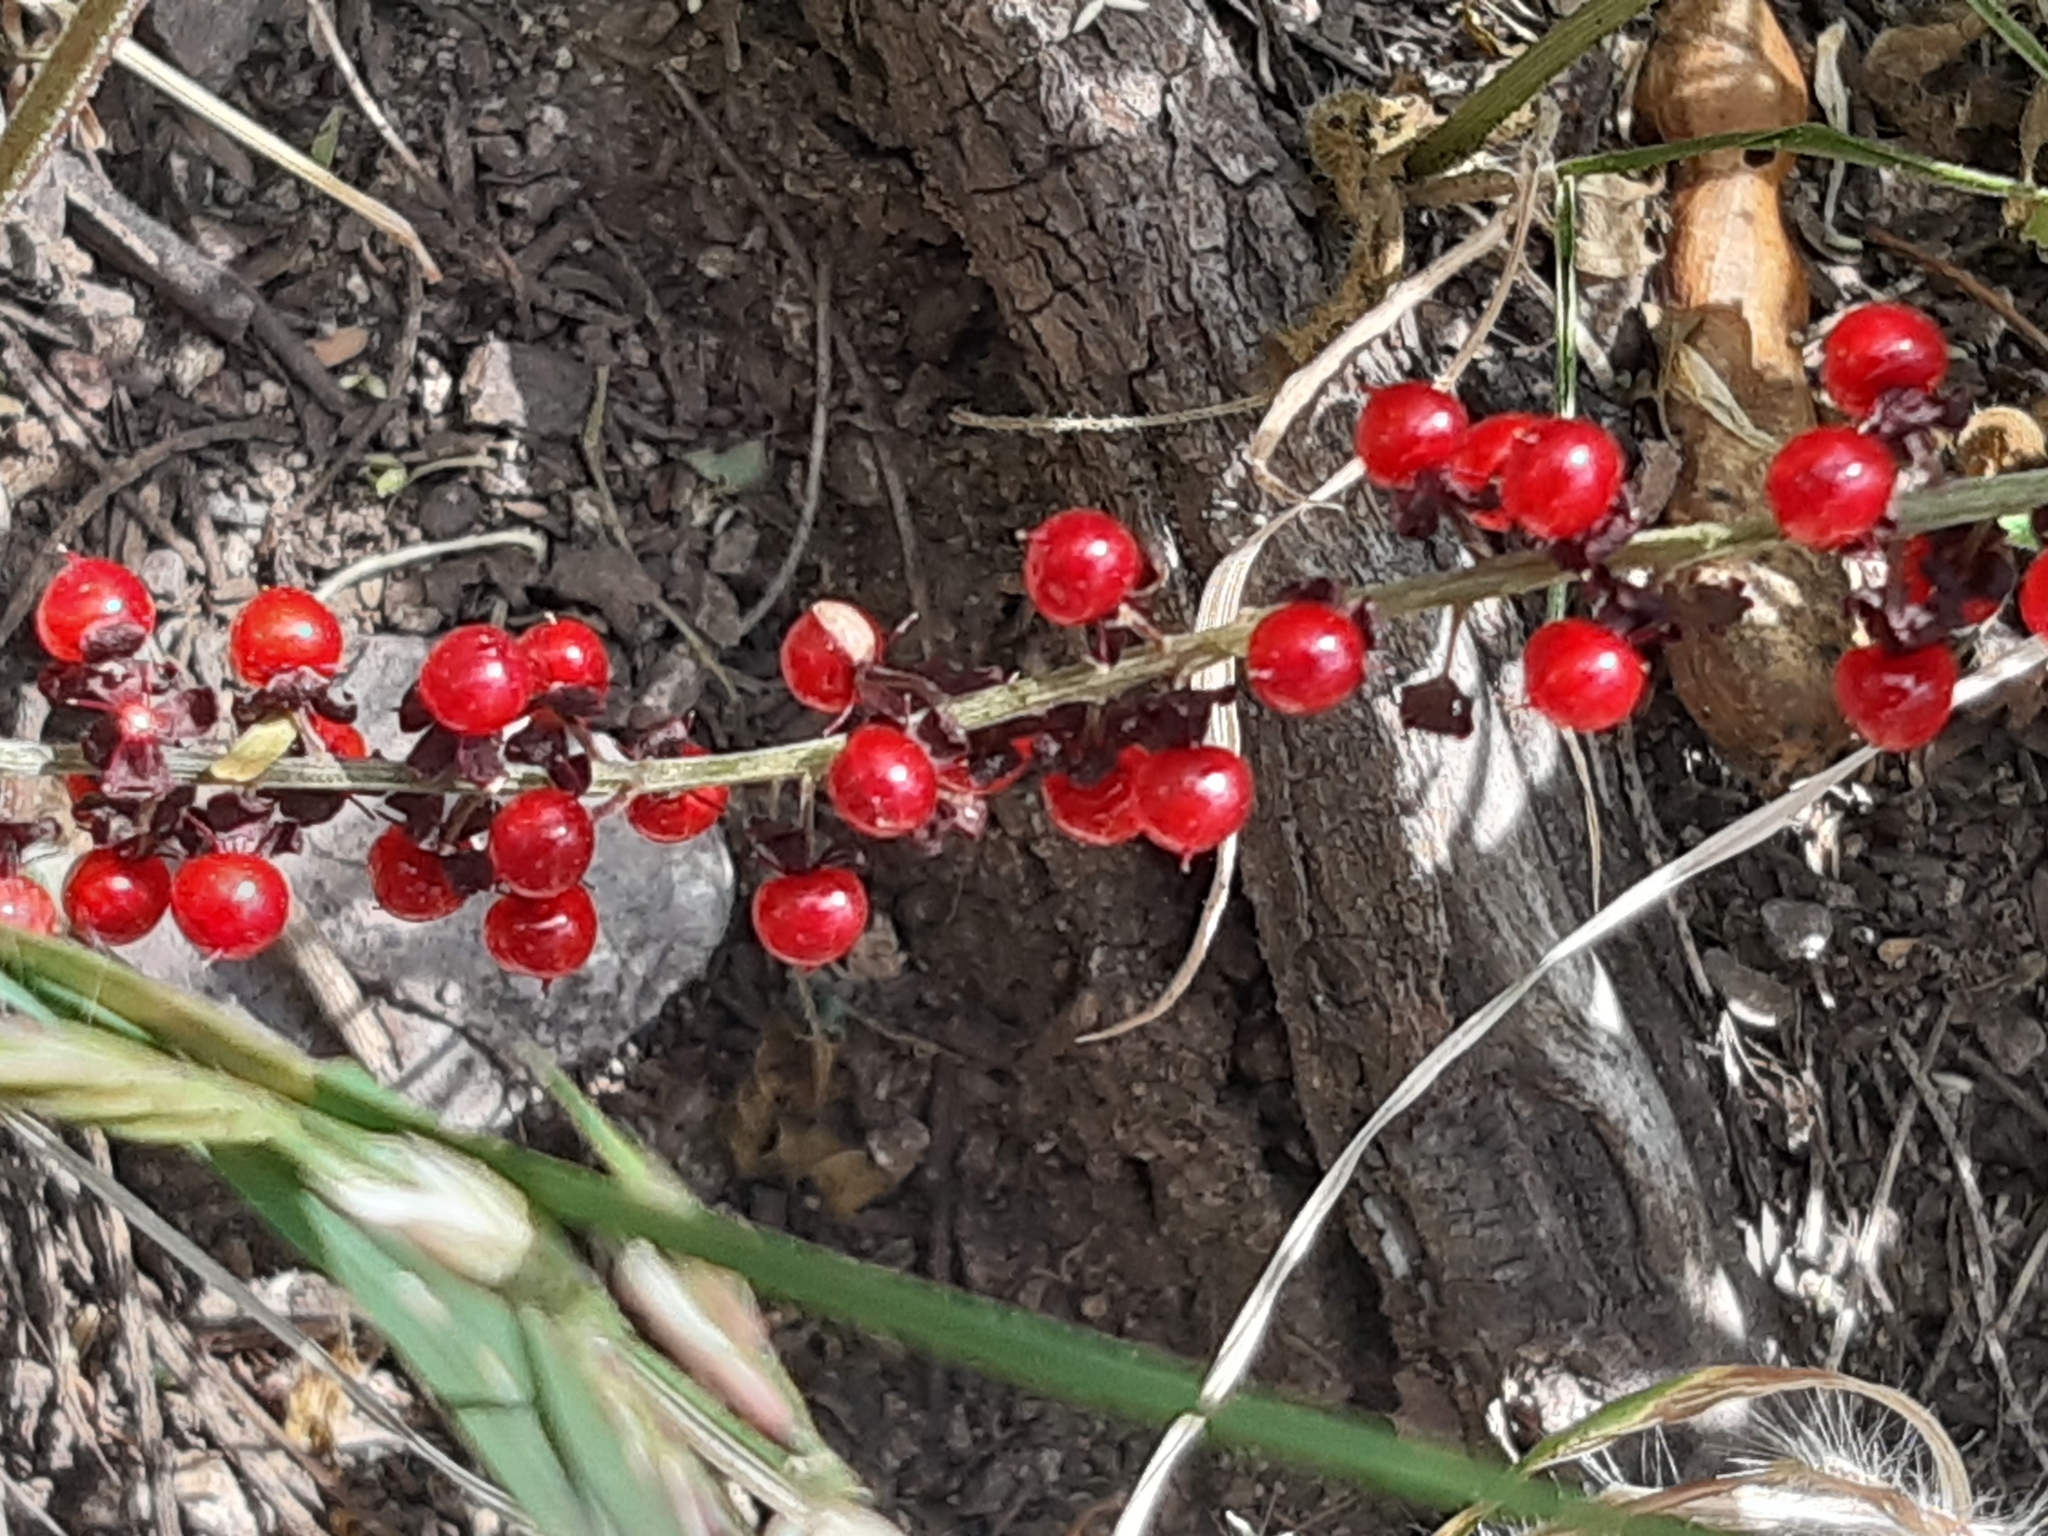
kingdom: Plantae
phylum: Tracheophyta
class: Magnoliopsida
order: Caryophyllales
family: Phytolaccaceae
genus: Rivina
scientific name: Rivina humilis
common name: Rougeplant
